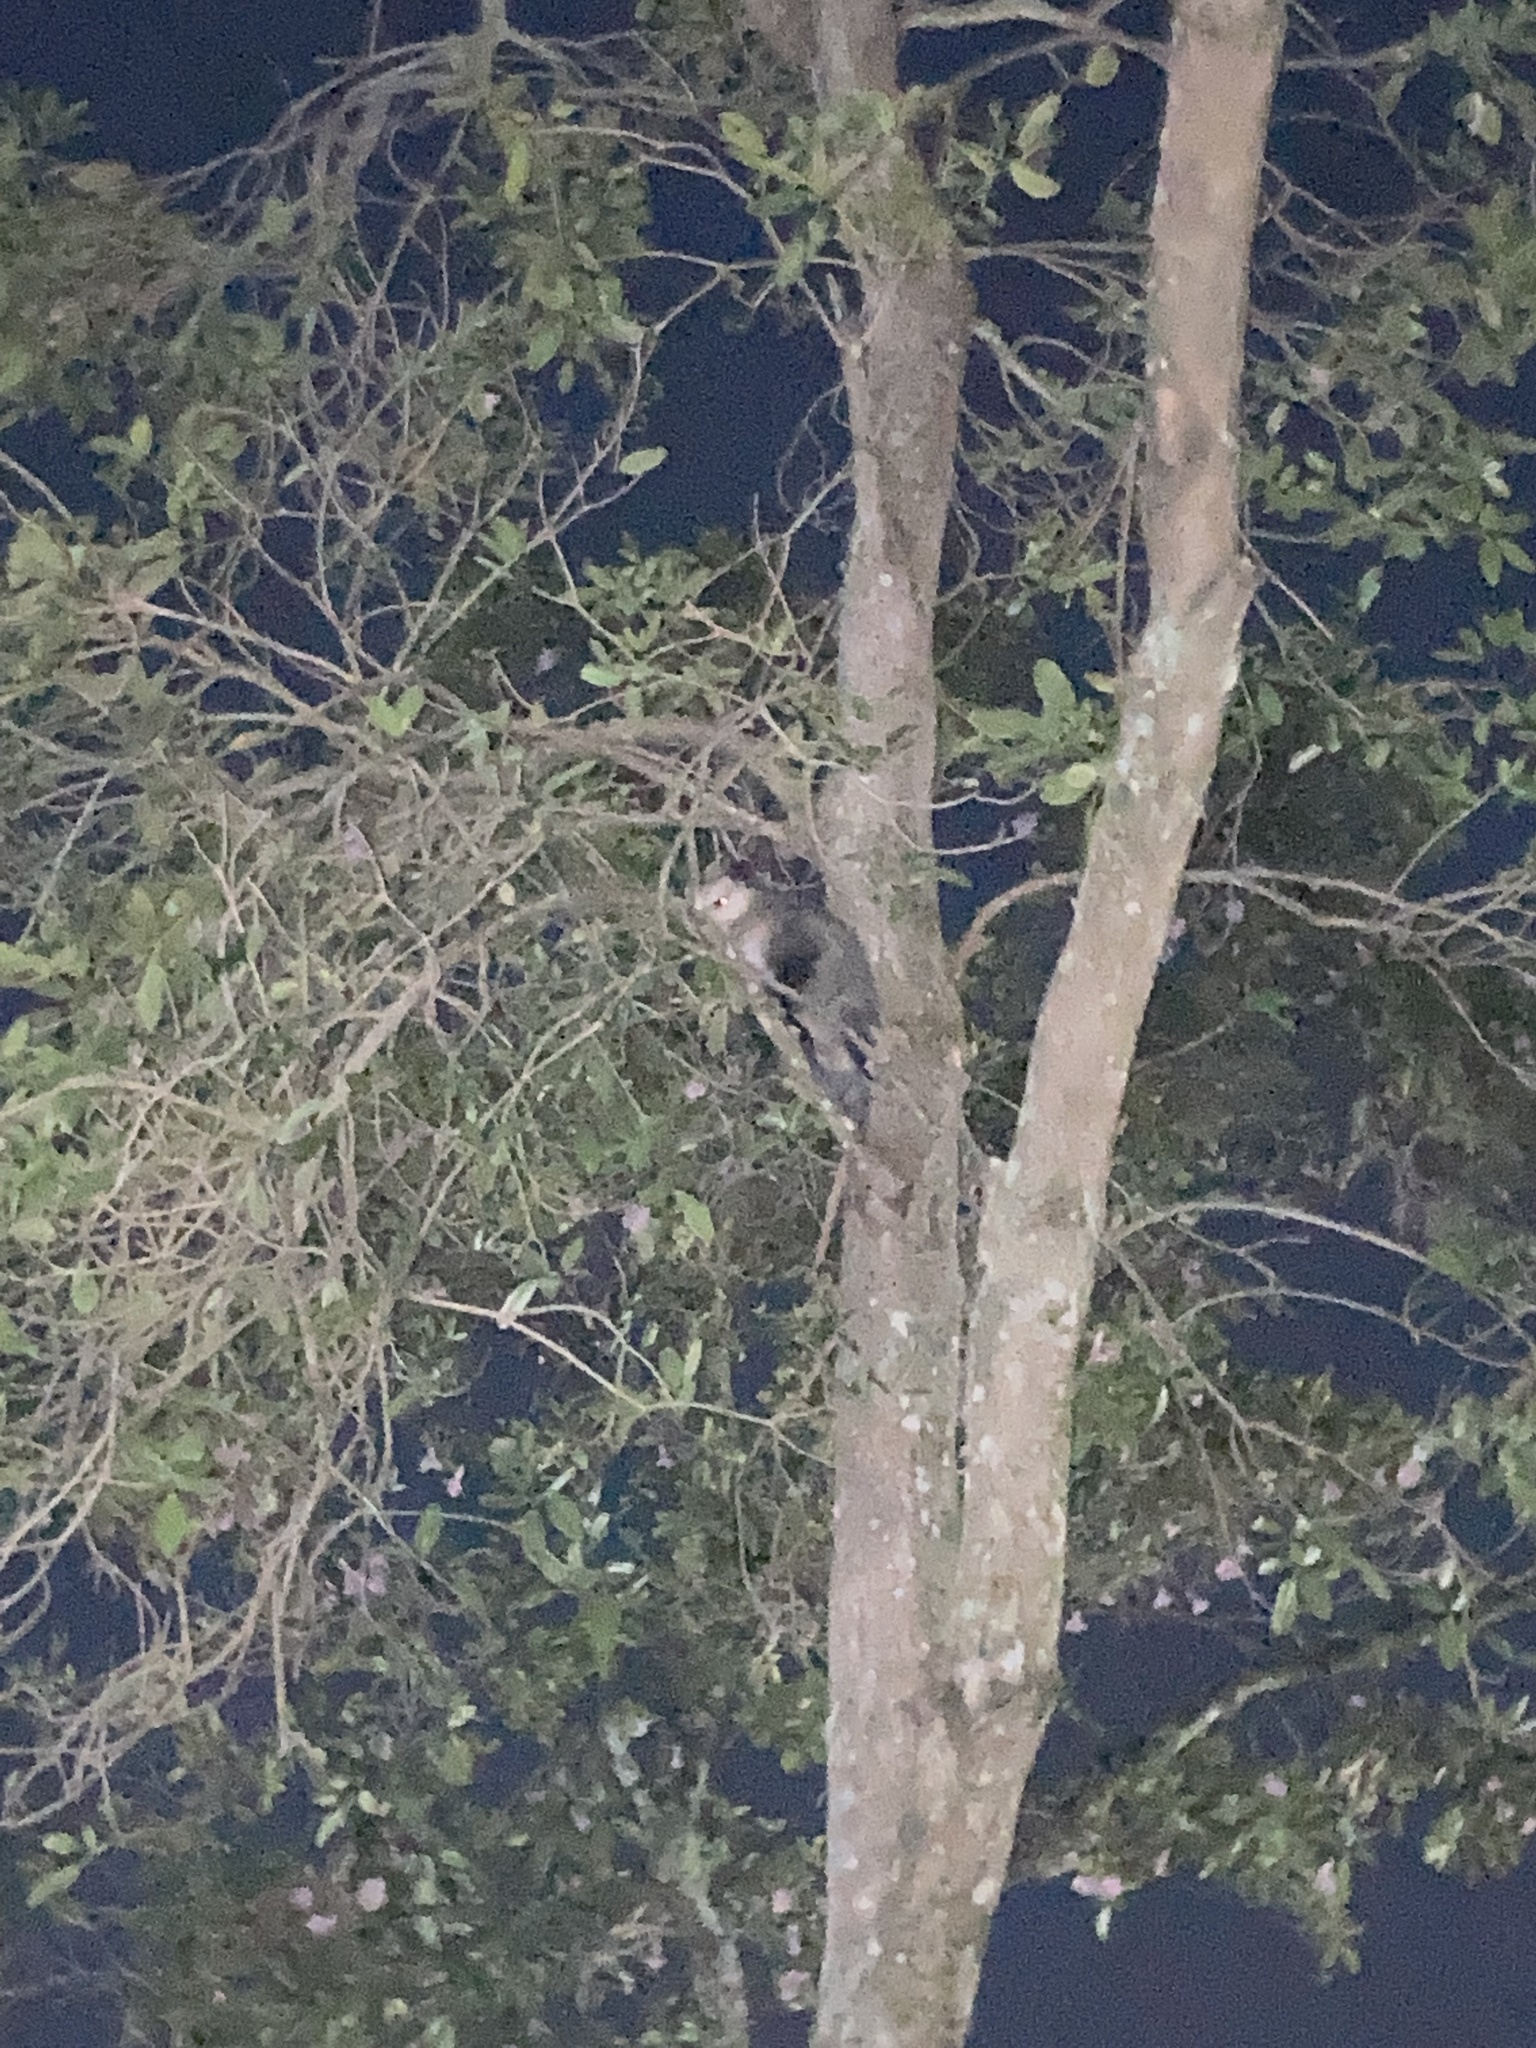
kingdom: Animalia
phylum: Chordata
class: Mammalia
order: Didelphimorphia
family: Didelphidae
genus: Didelphis
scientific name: Didelphis virginiana
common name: Virginia opossum
